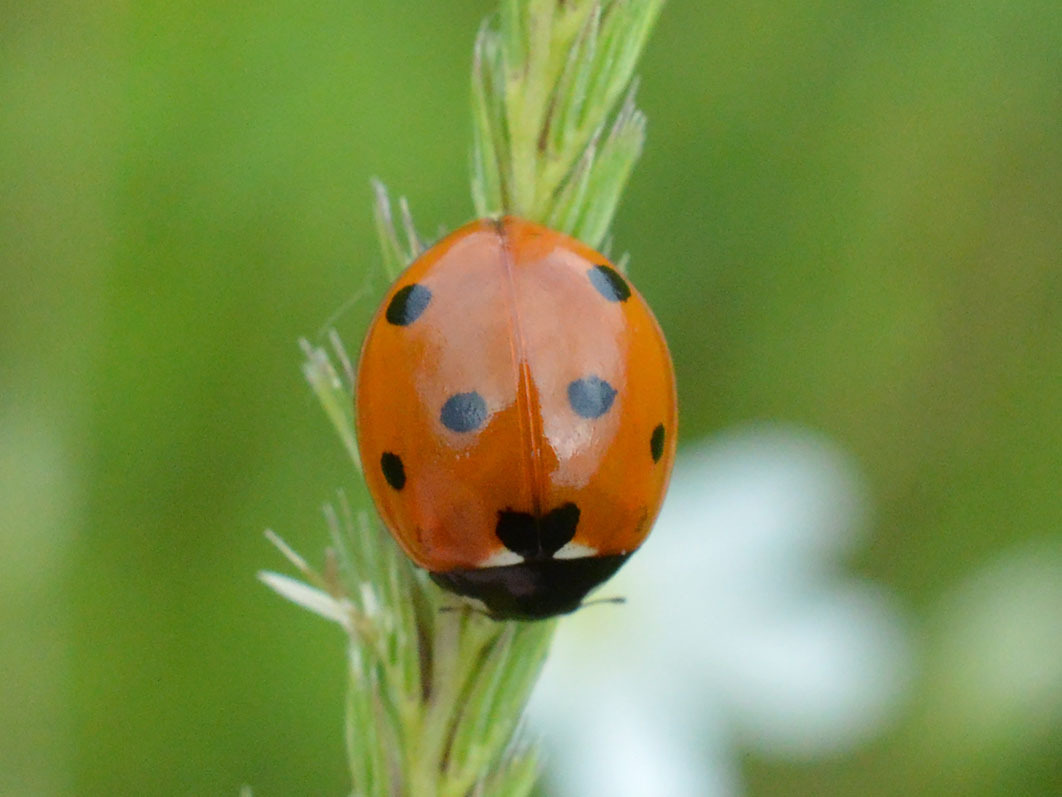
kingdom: Animalia
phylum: Arthropoda
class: Insecta
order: Coleoptera
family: Coccinellidae
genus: Coccinella
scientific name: Coccinella septempunctata
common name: Sevenspotted lady beetle
